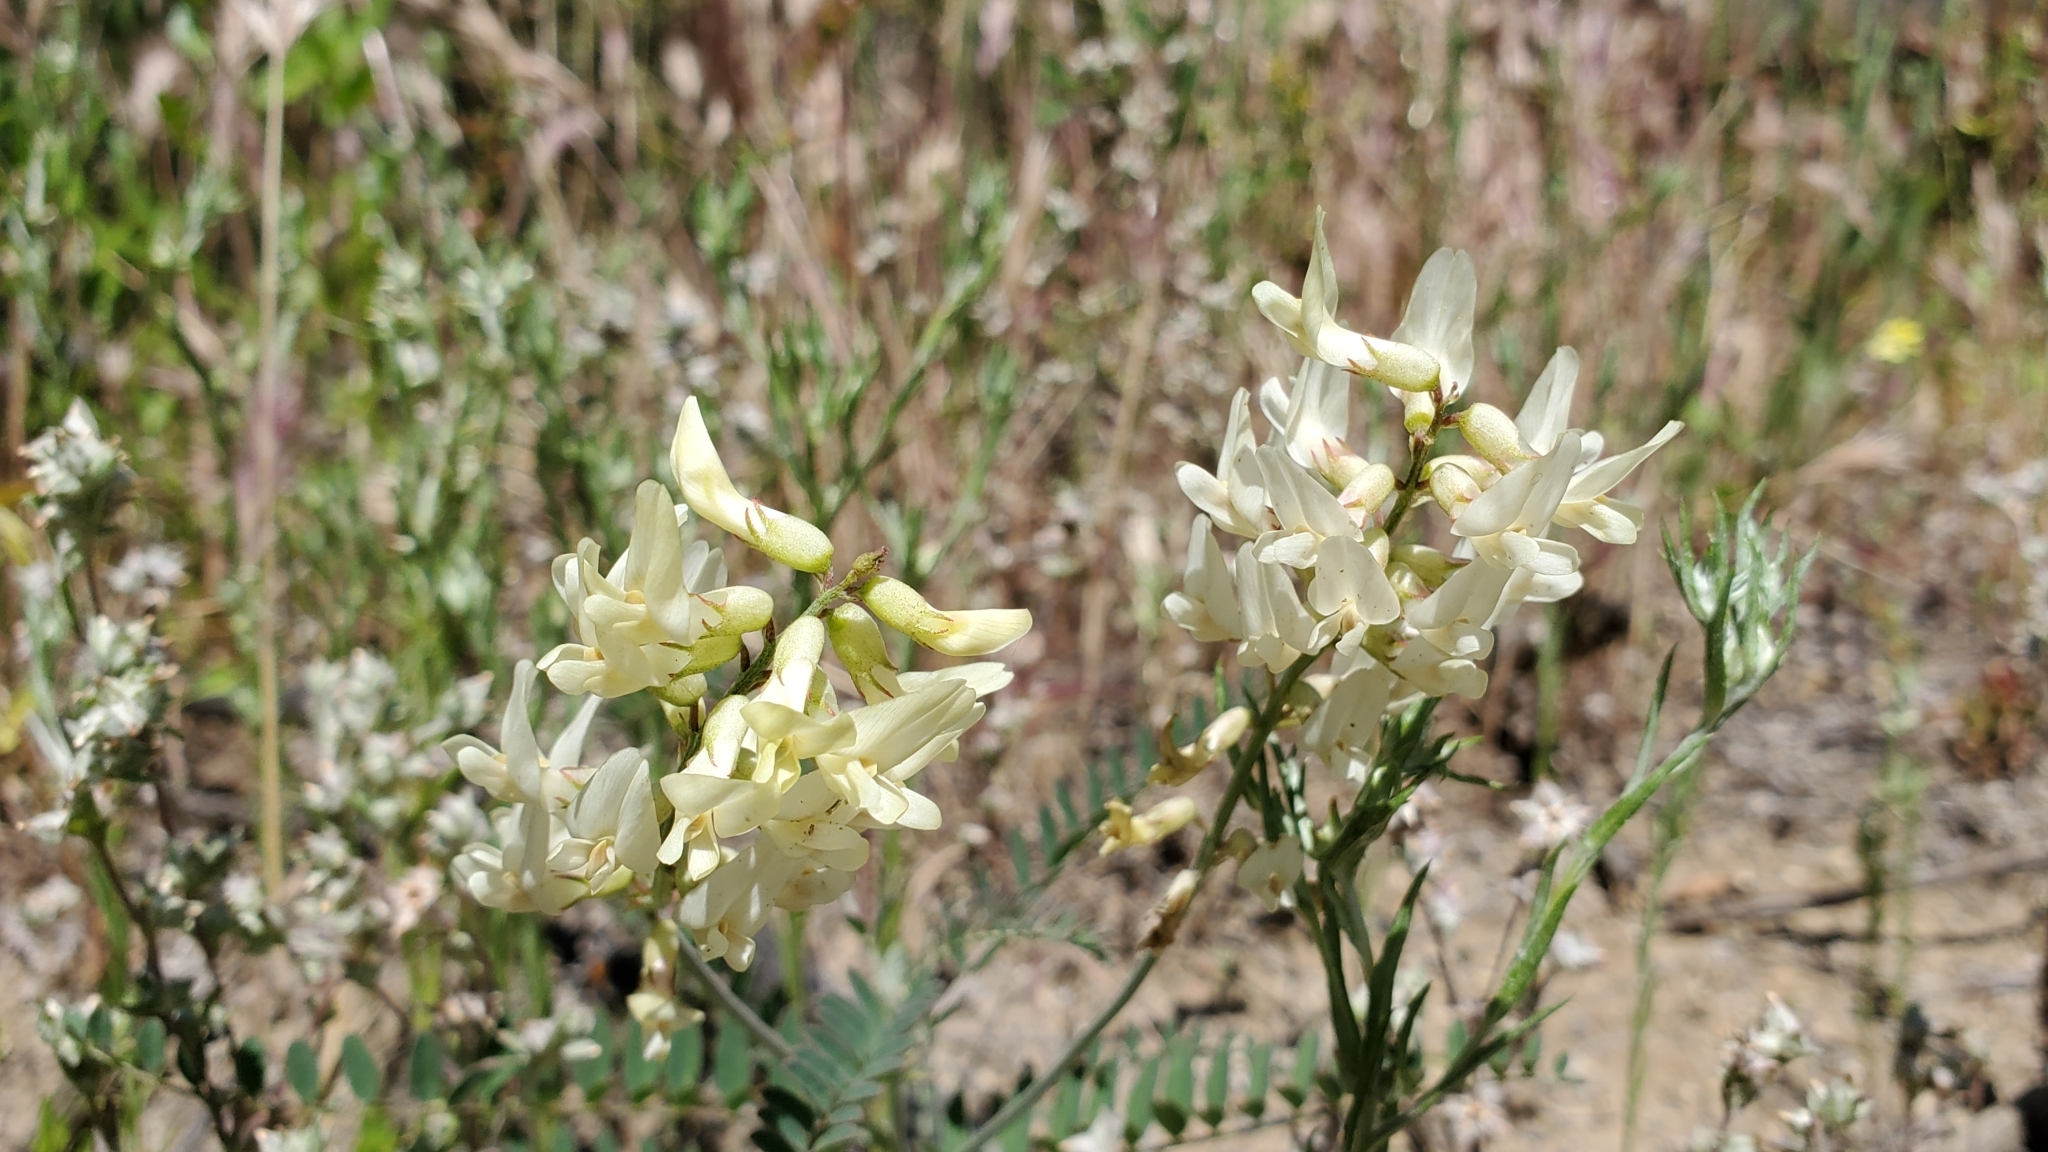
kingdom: Plantae
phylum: Tracheophyta
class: Magnoliopsida
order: Fabales
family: Fabaceae
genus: Astragalus
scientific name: Astragalus trichopodus
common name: Santa barbara milk-vetch
